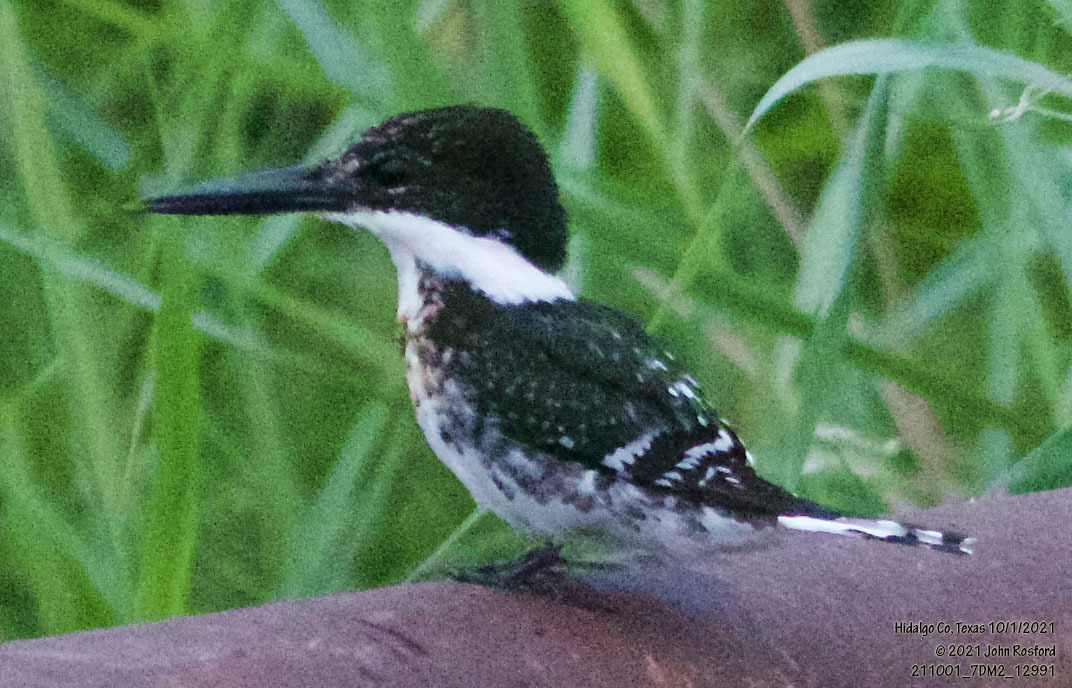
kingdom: Animalia
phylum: Chordata
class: Aves
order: Coraciiformes
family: Alcedinidae
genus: Chloroceryle
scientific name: Chloroceryle americana
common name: Green kingfisher
